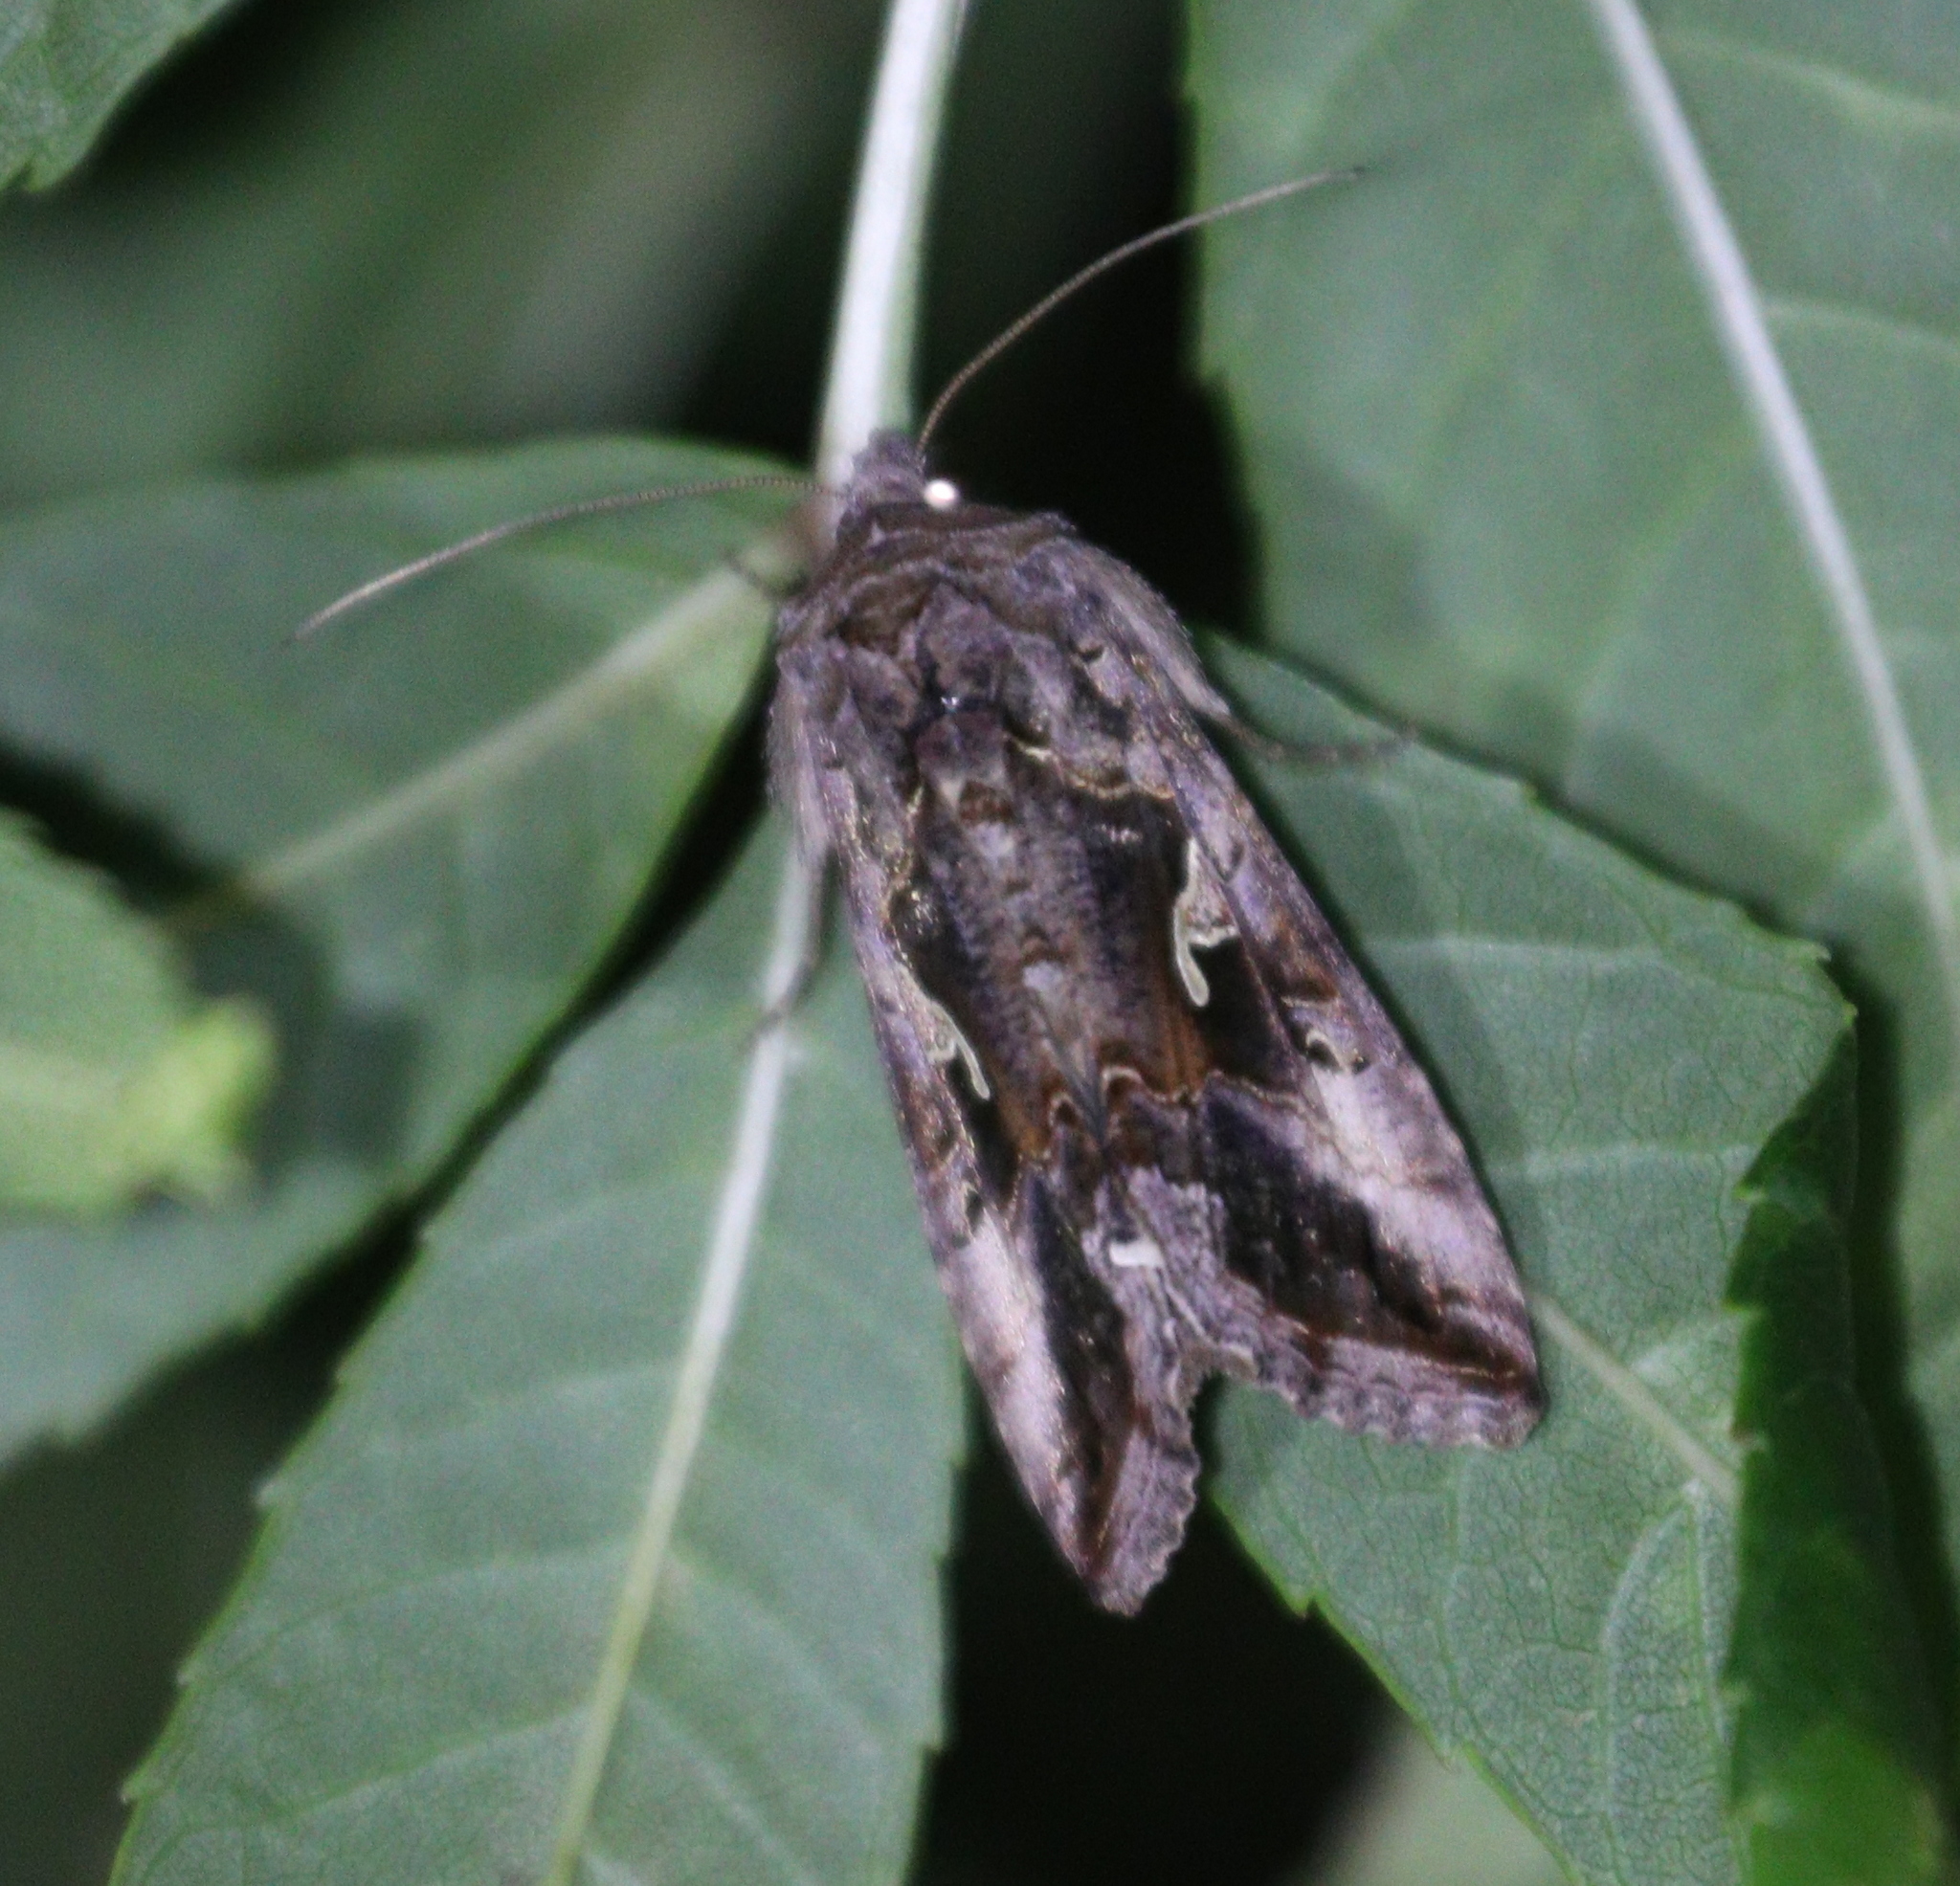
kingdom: Animalia
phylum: Arthropoda
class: Insecta
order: Lepidoptera
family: Noctuidae
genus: Autographa
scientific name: Autographa gamma
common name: Silver y
